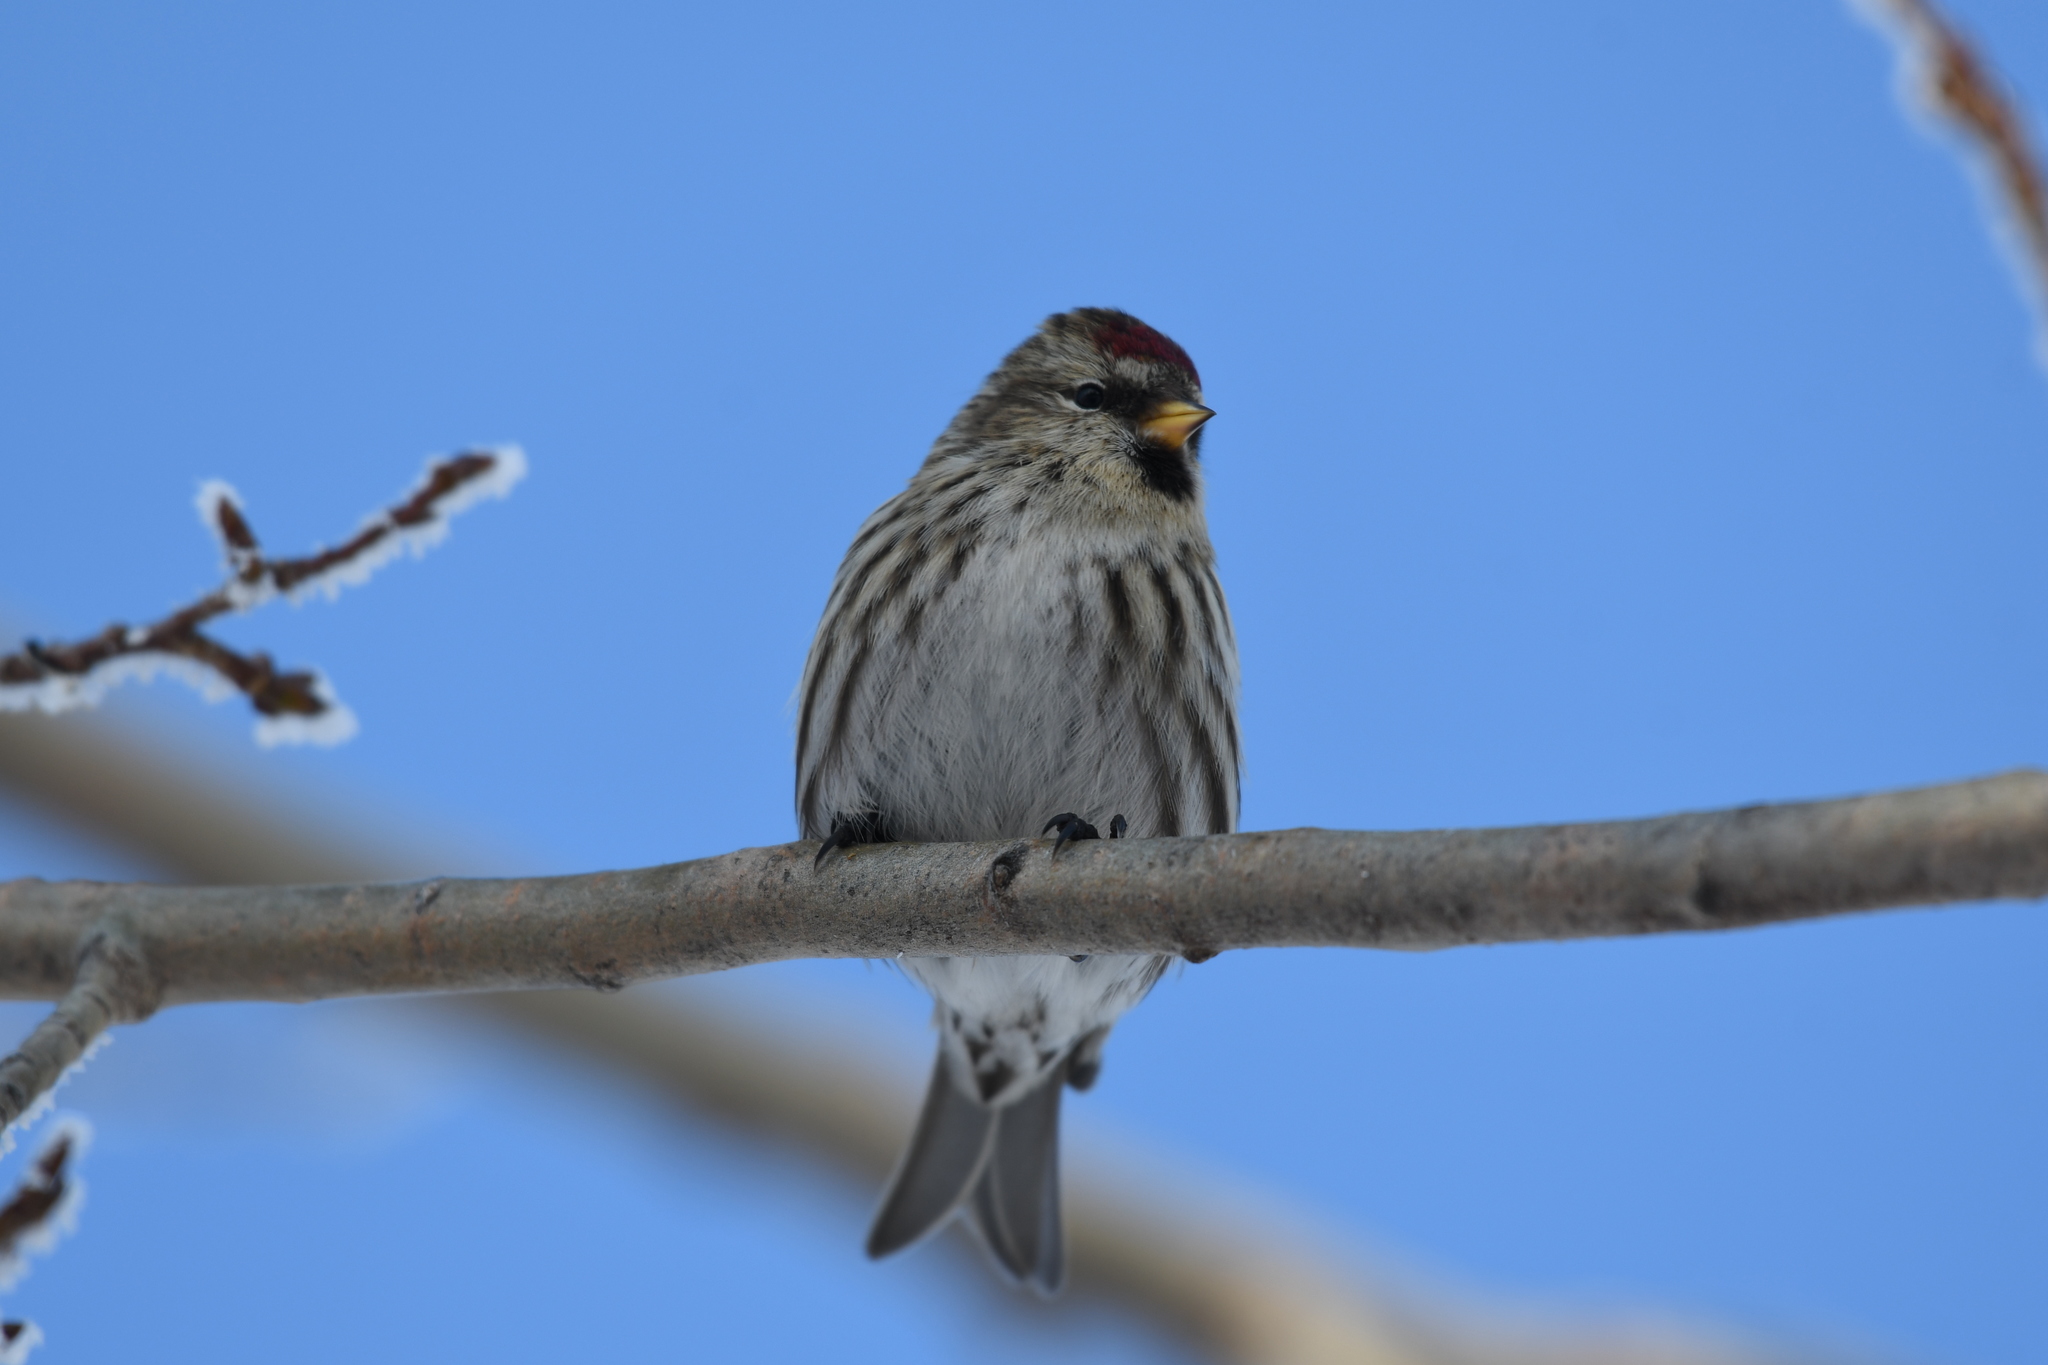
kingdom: Animalia
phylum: Chordata
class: Aves
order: Passeriformes
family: Fringillidae
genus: Acanthis
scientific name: Acanthis flammea
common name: Common redpoll
